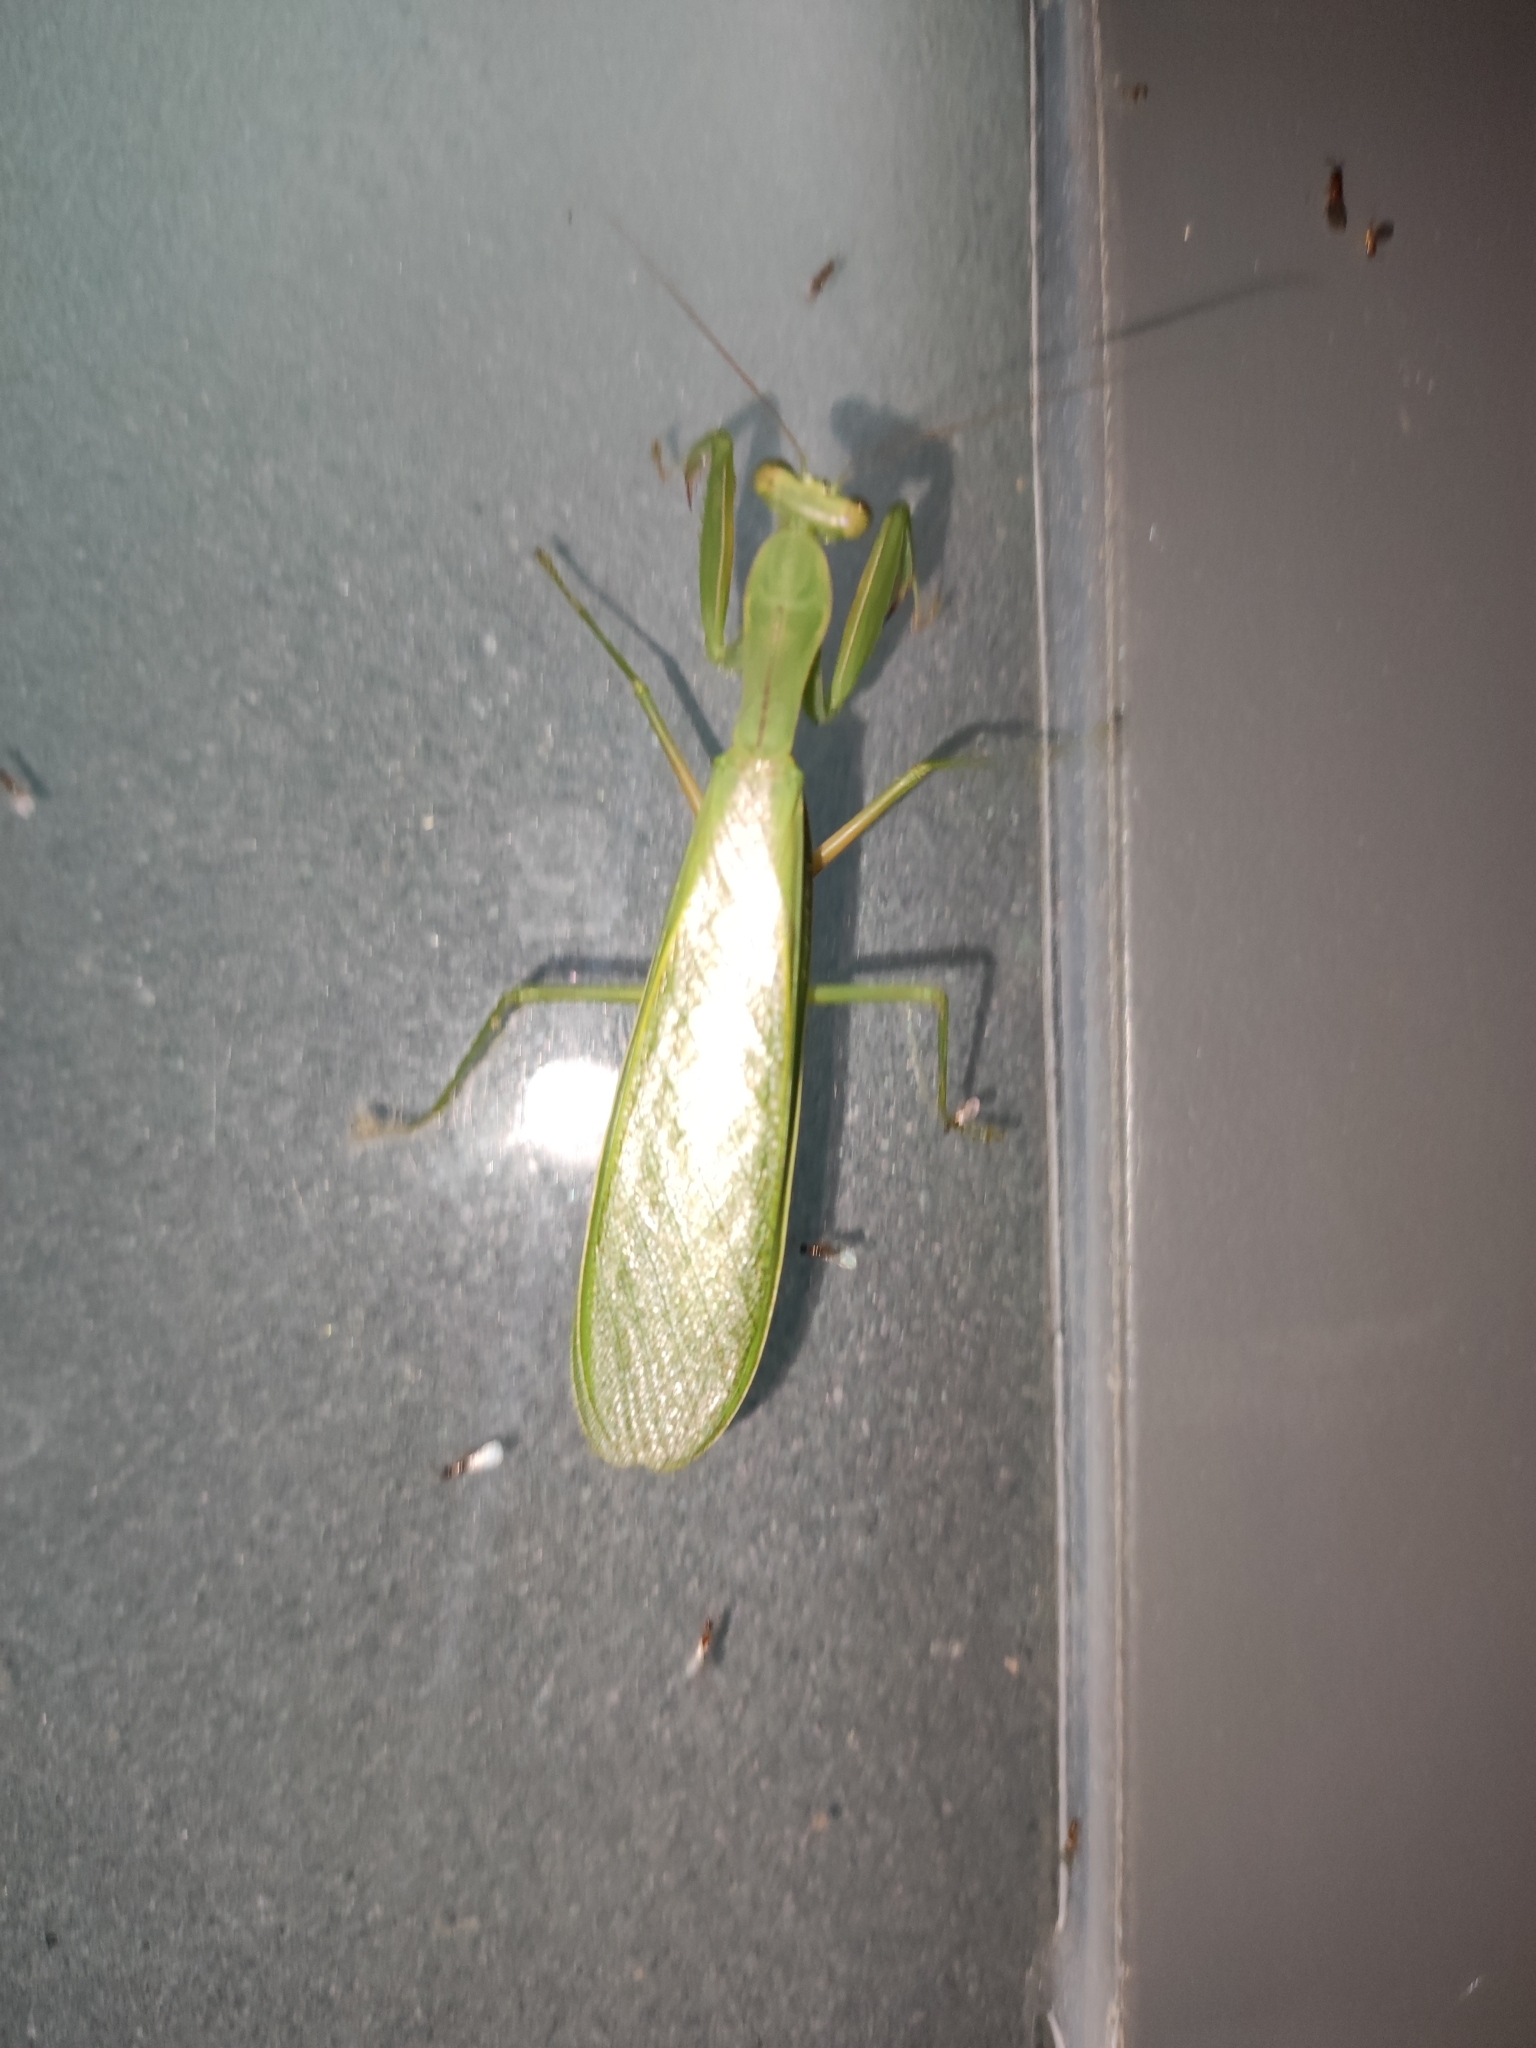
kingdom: Animalia
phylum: Arthropoda
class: Insecta
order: Mantodea
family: Mantidae
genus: Dracomantis
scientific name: Dracomantis mirofraternus
